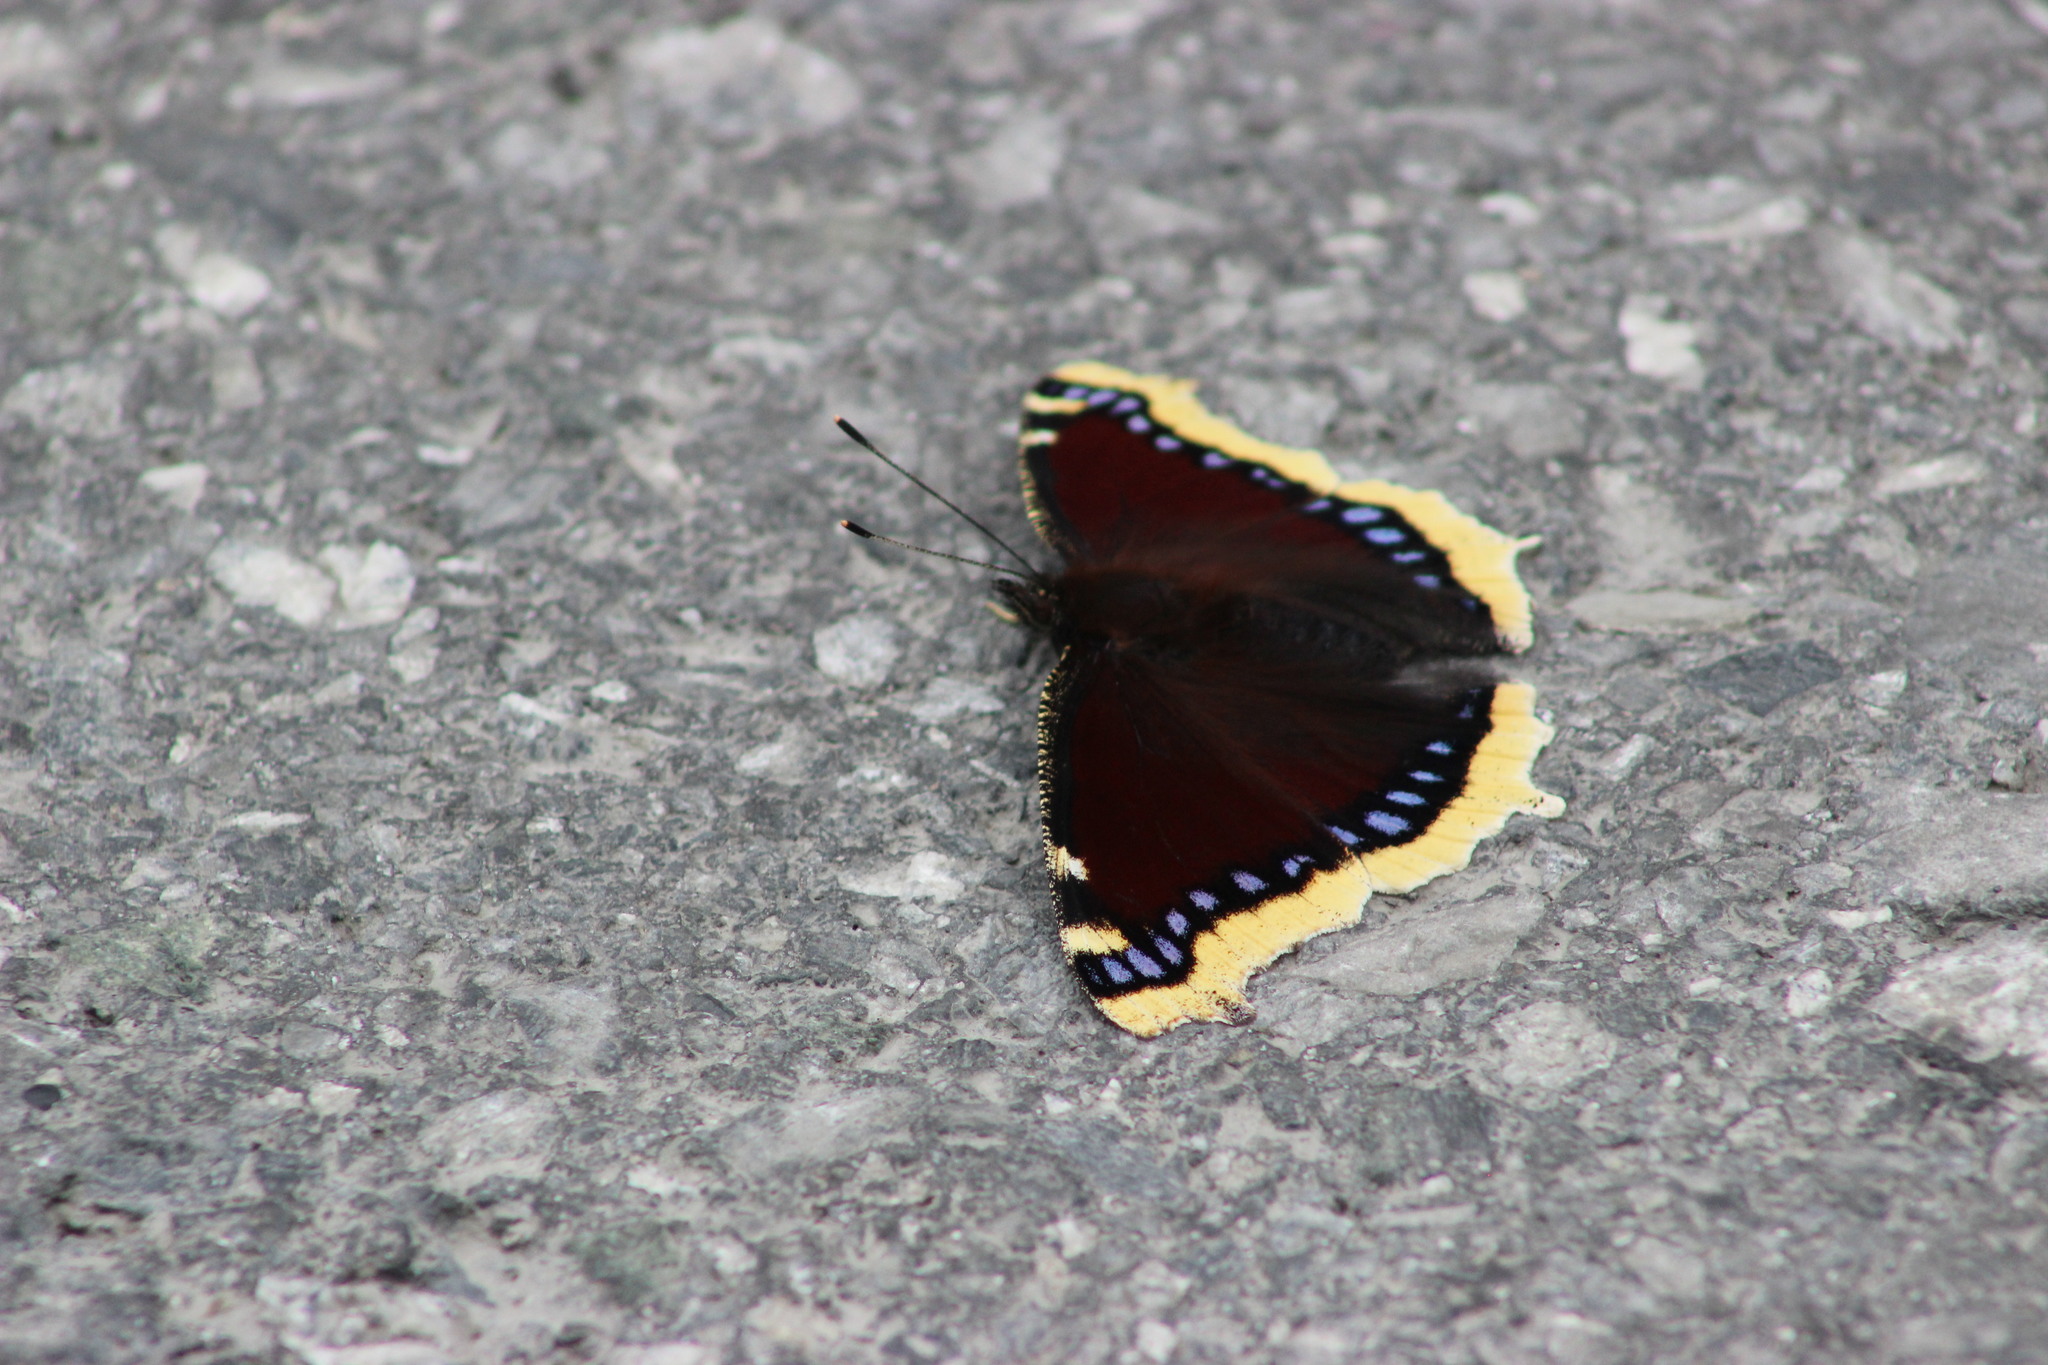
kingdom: Animalia
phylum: Arthropoda
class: Insecta
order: Lepidoptera
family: Nymphalidae
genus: Nymphalis
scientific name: Nymphalis antiopa
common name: Camberwell beauty
